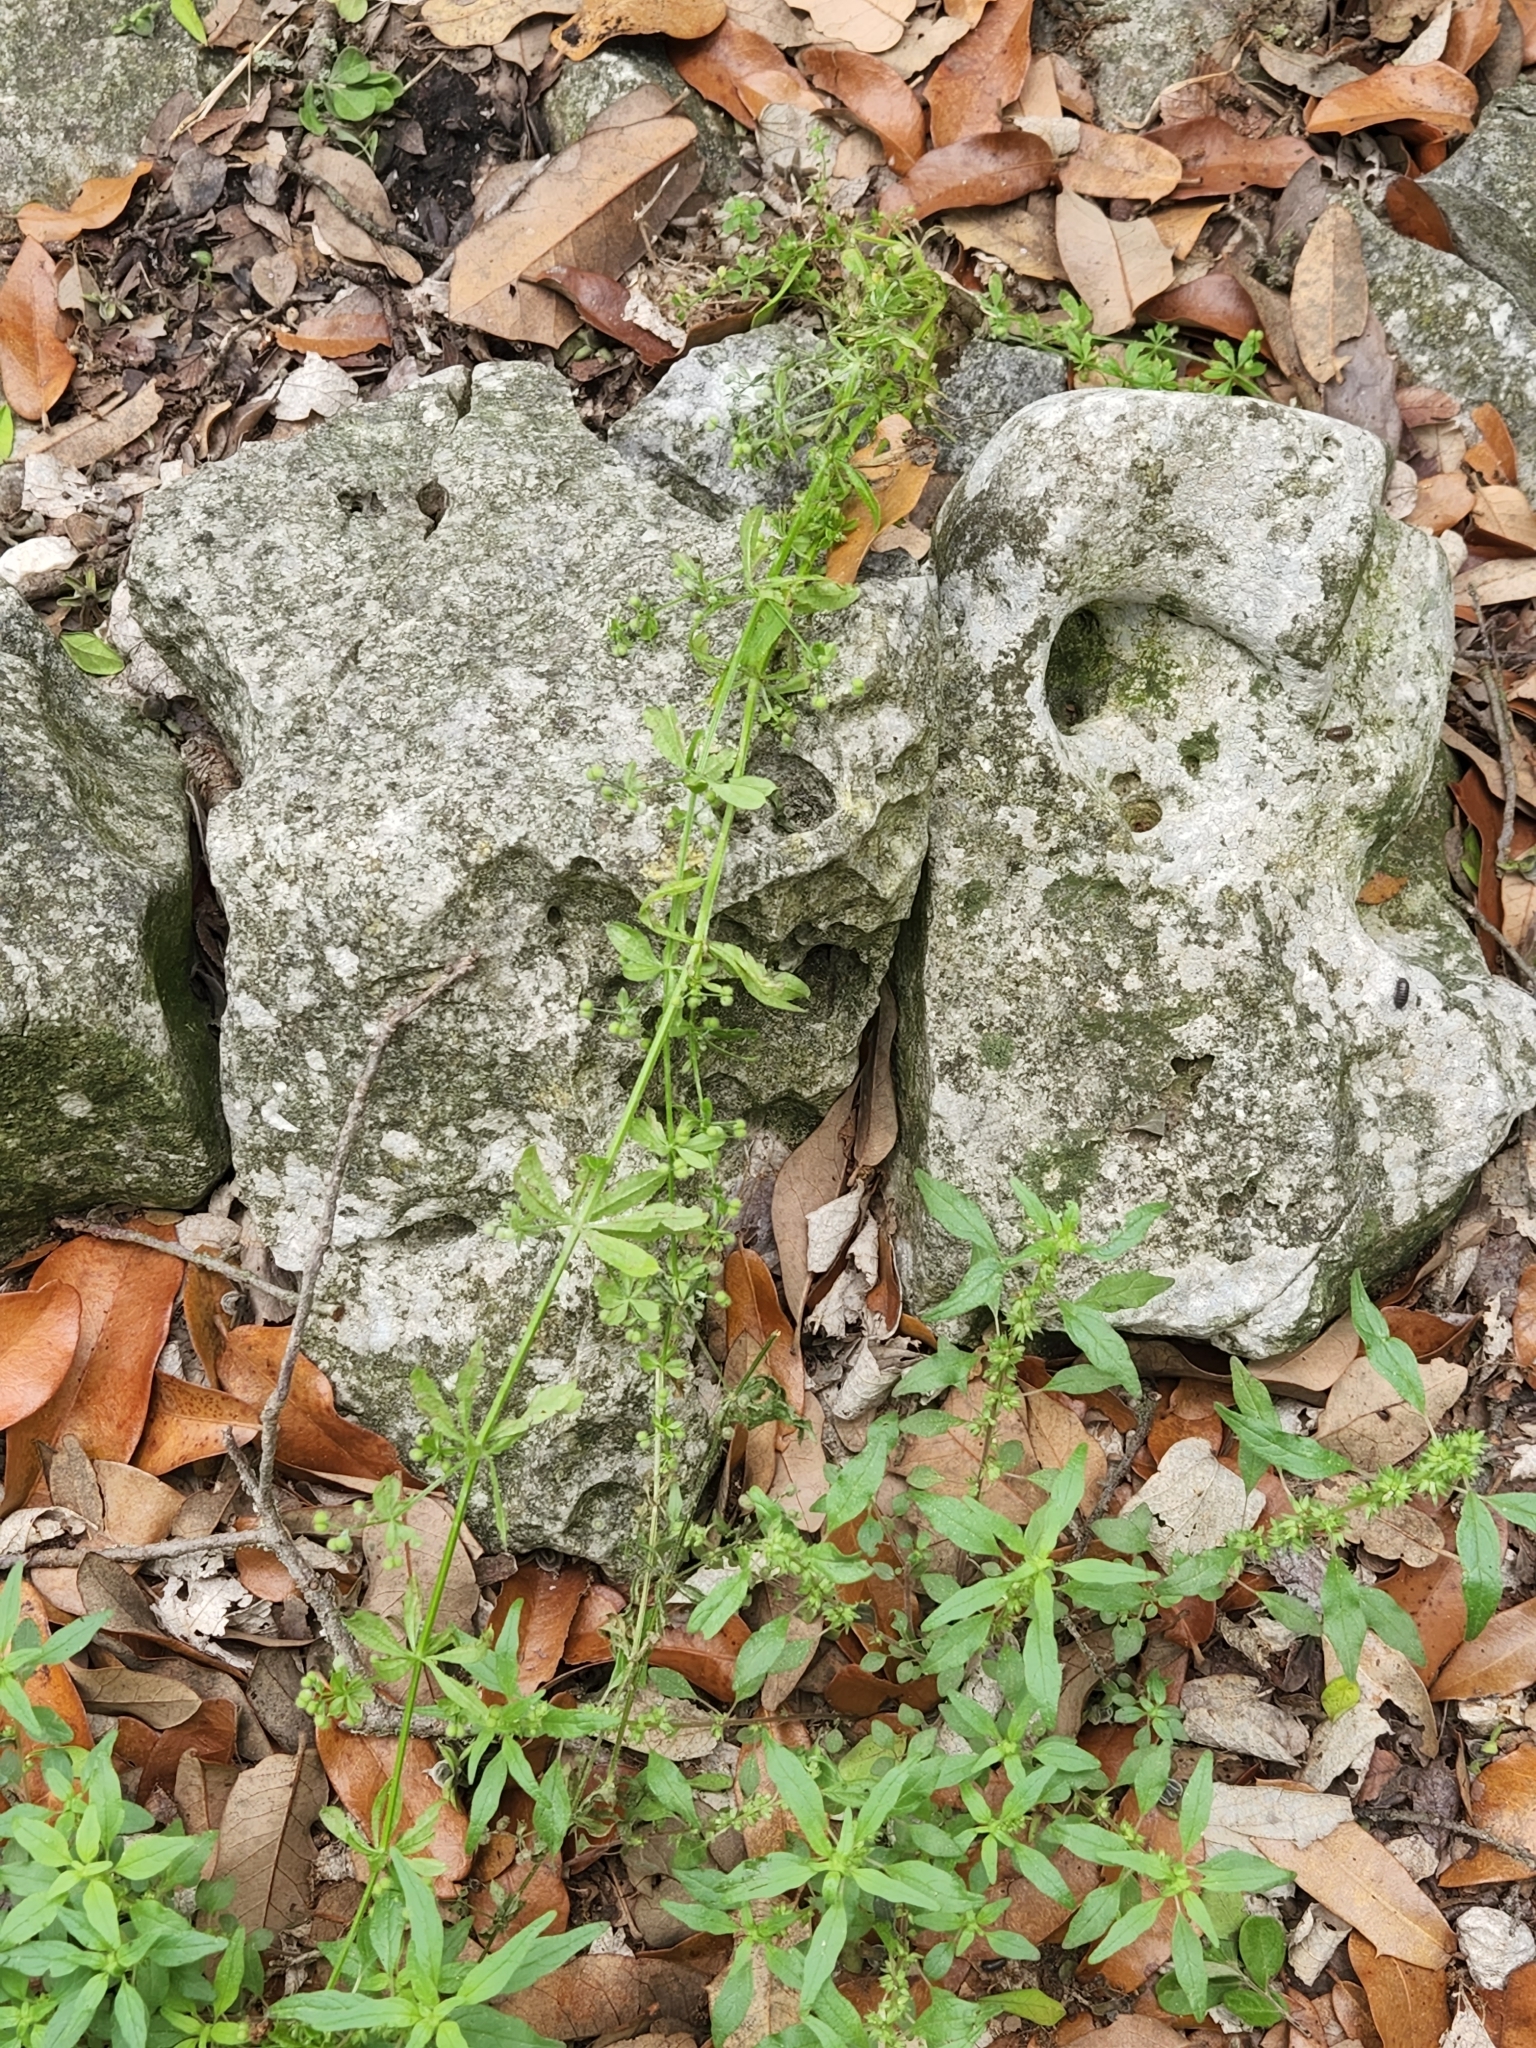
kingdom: Plantae
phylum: Tracheophyta
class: Magnoliopsida
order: Gentianales
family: Rubiaceae
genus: Galium
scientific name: Galium aparine
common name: Cleavers
